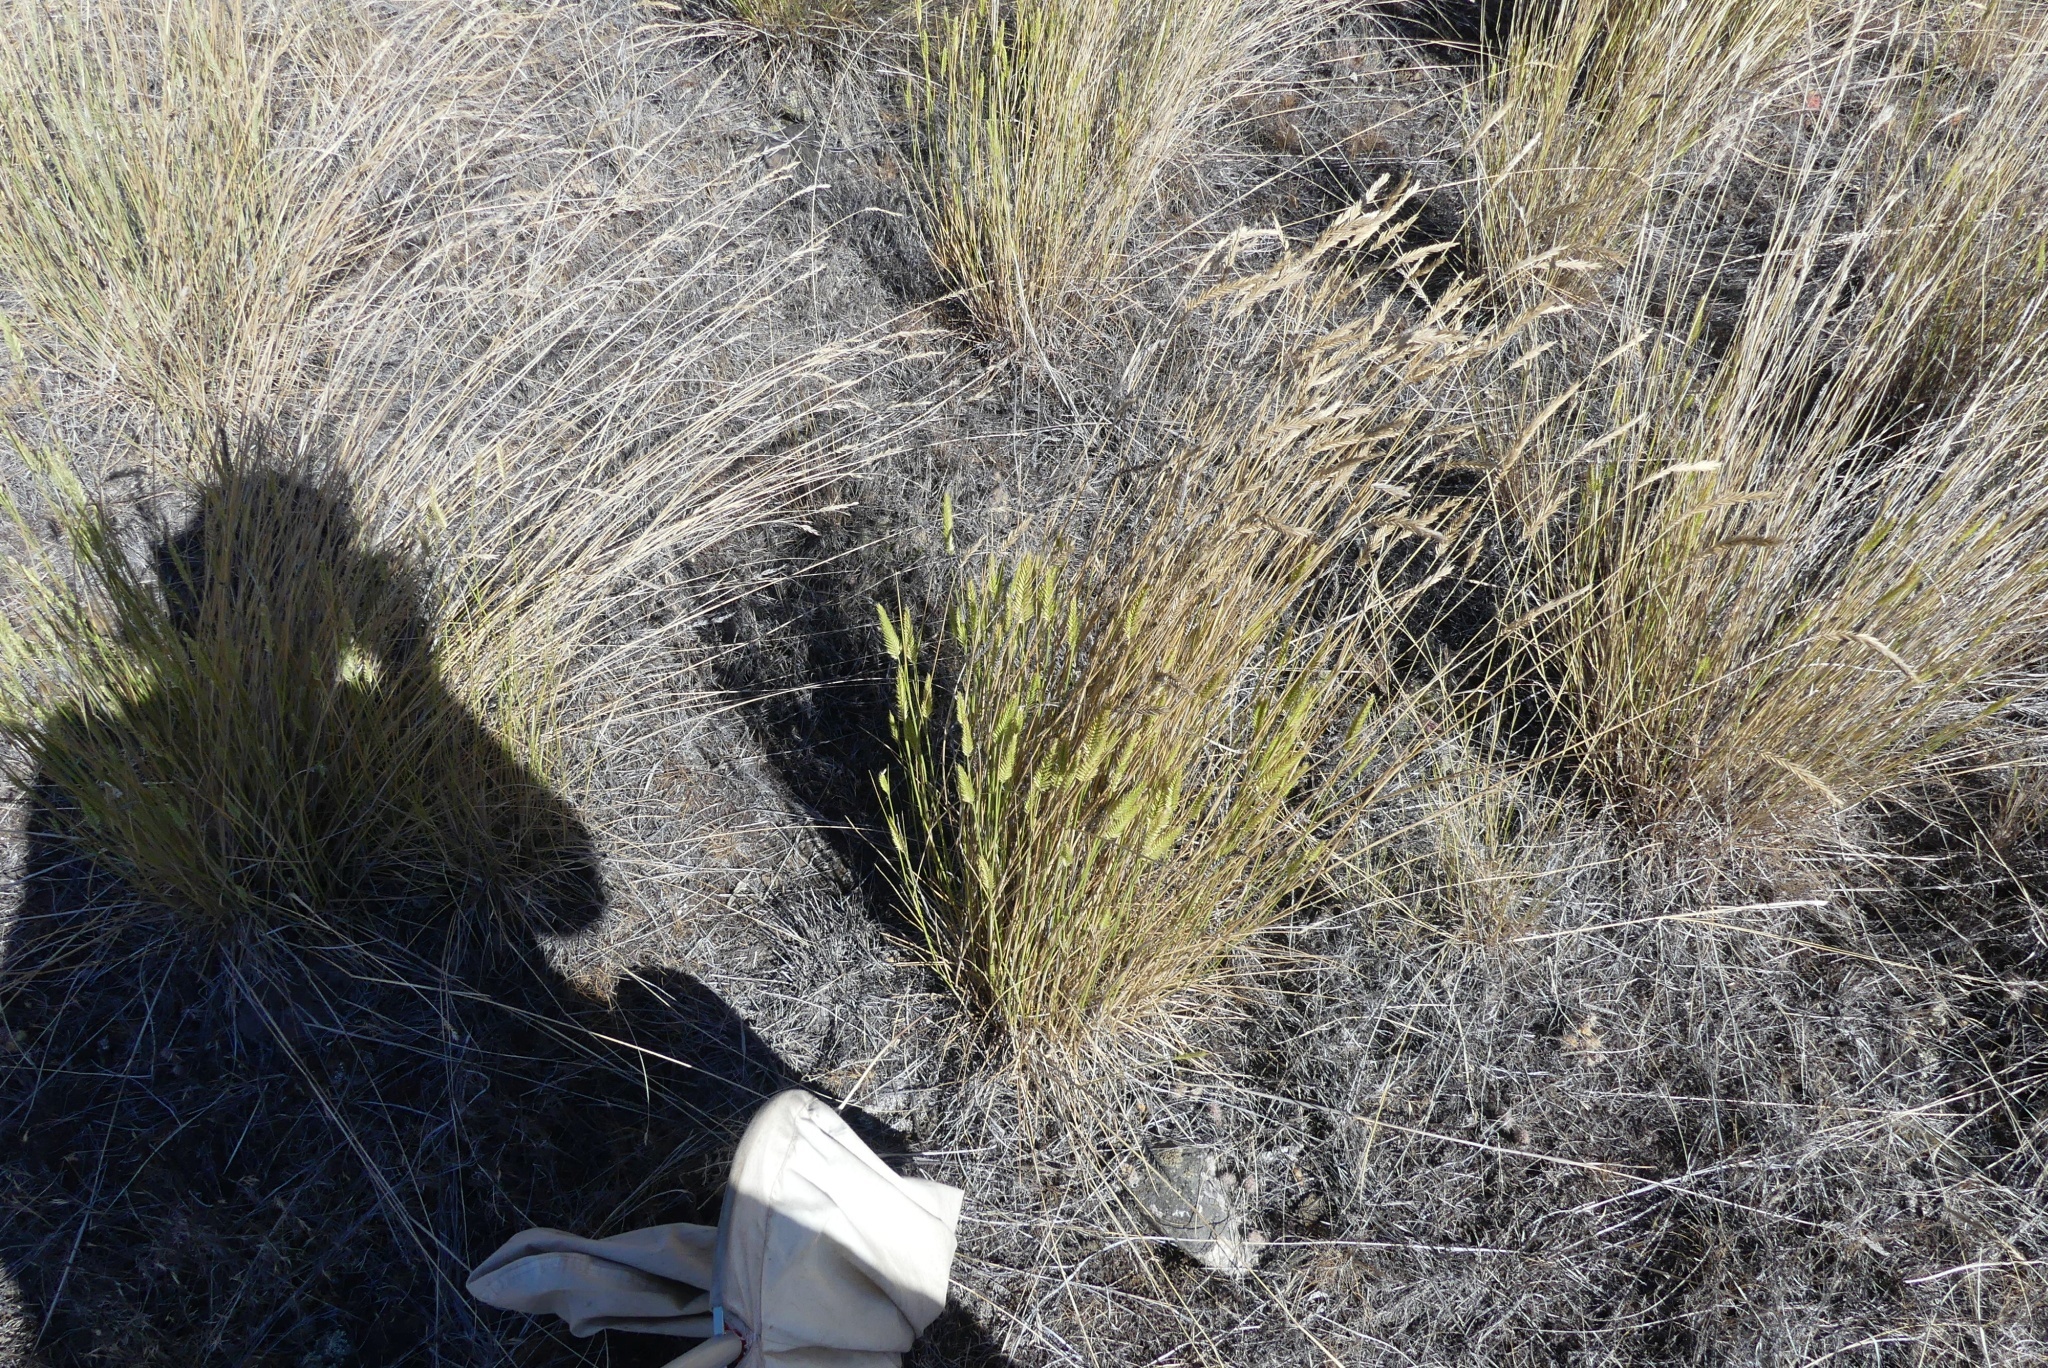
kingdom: Plantae
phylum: Tracheophyta
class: Liliopsida
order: Poales
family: Poaceae
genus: Agropyron
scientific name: Agropyron cristatum
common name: Crested wheatgrass
